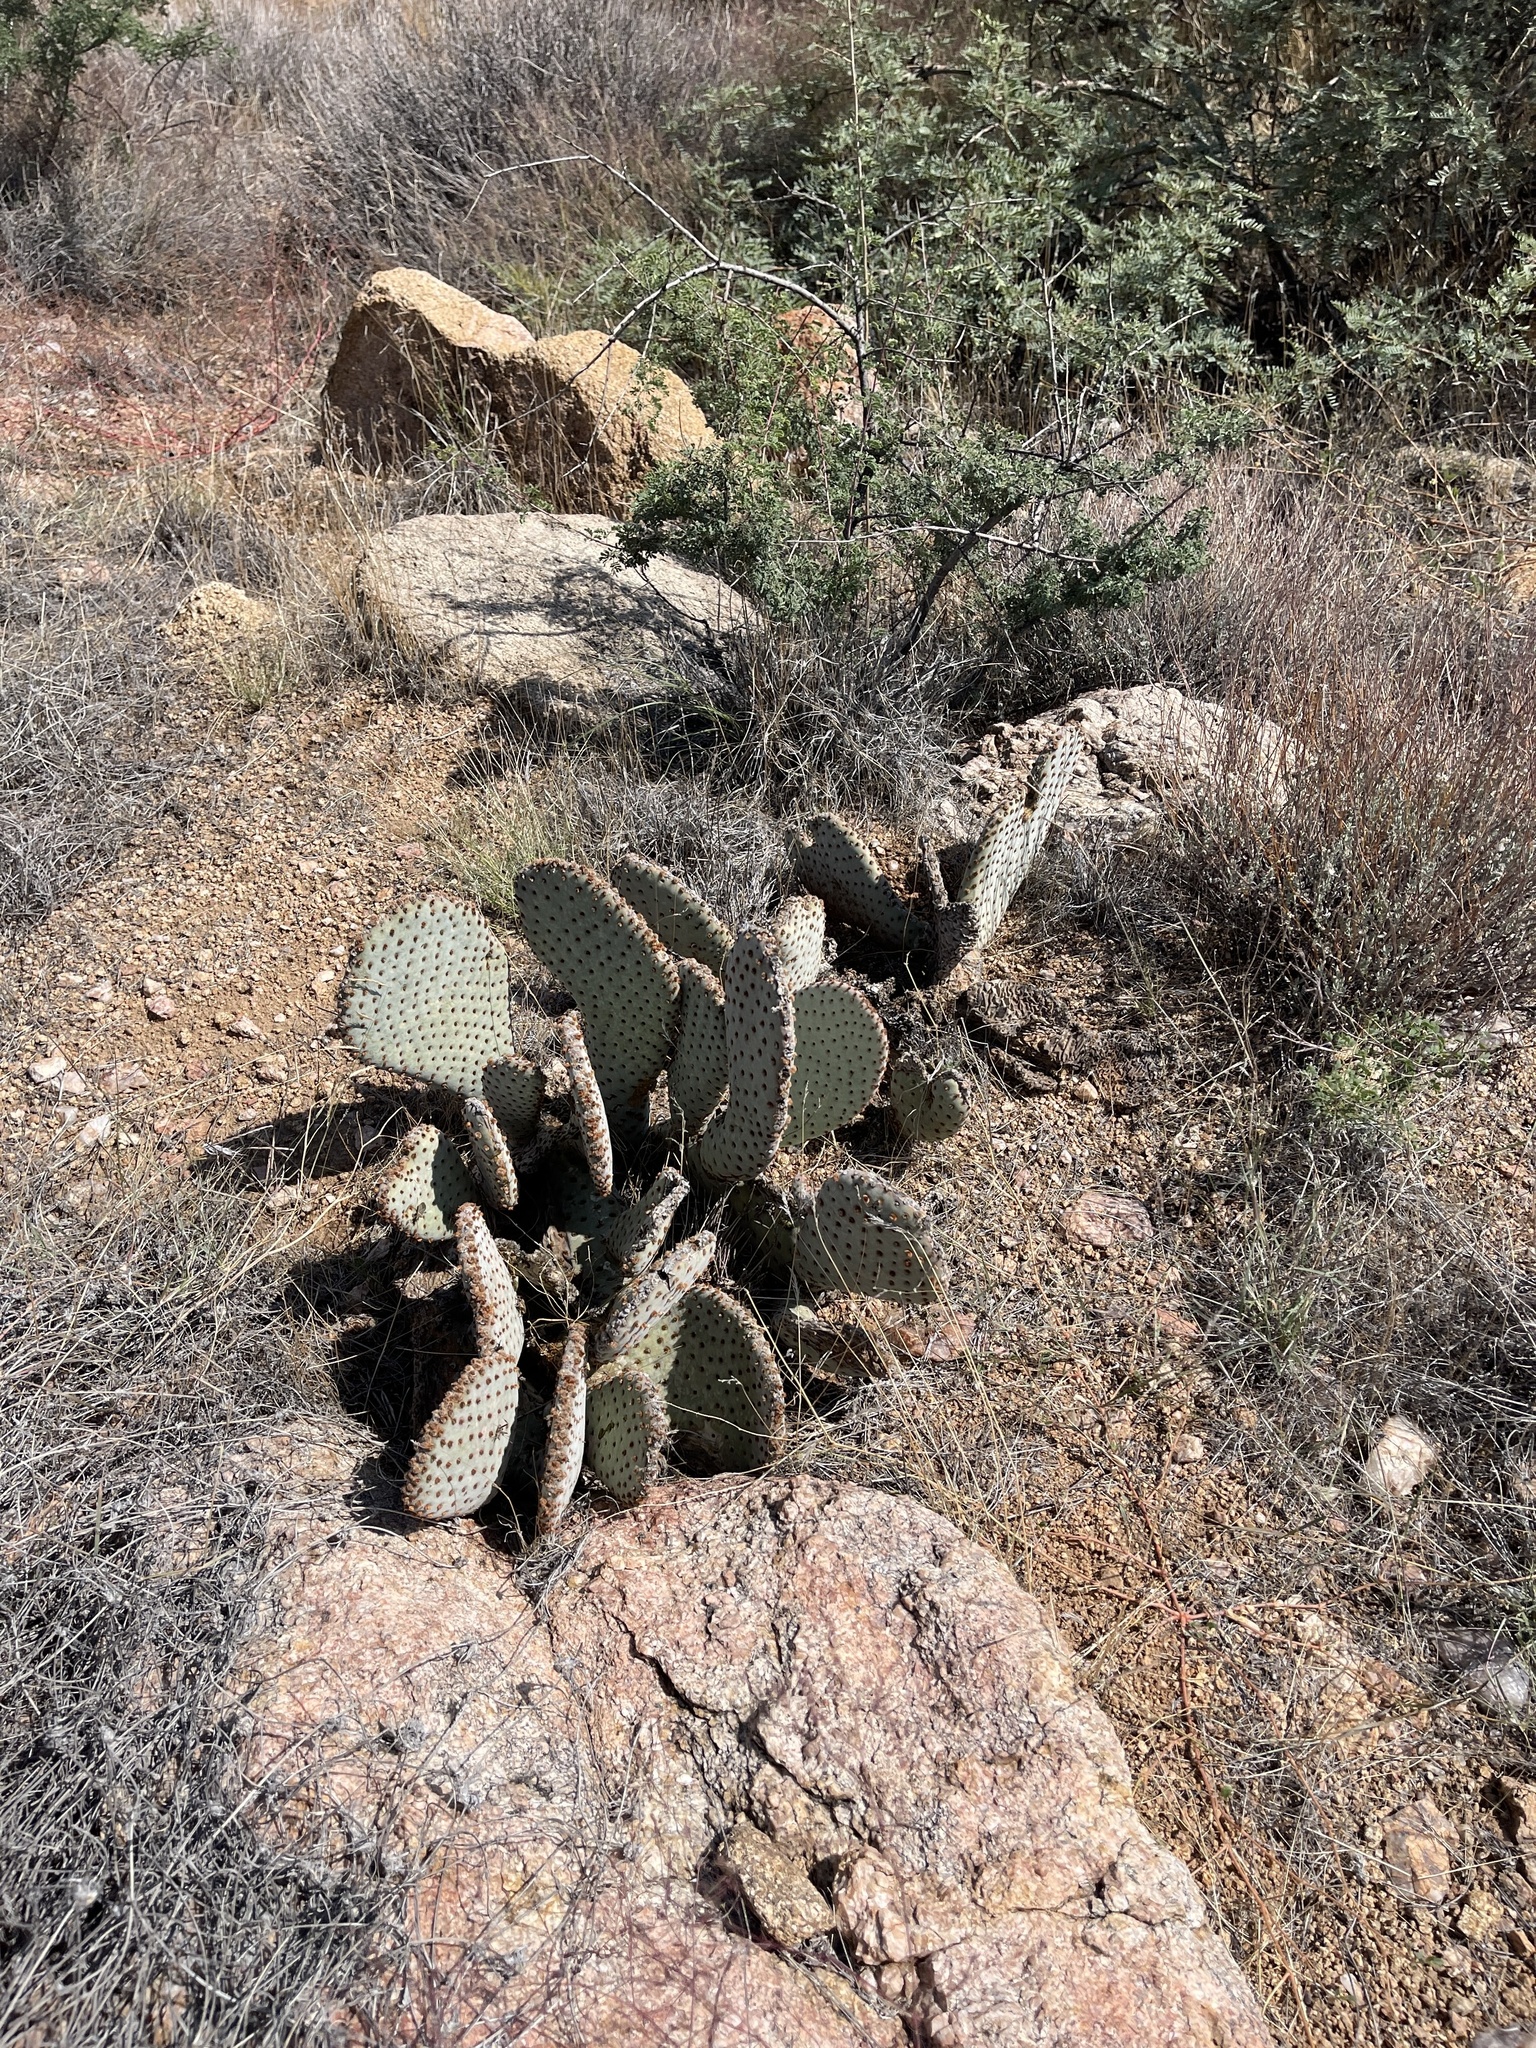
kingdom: Plantae
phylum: Tracheophyta
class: Magnoliopsida
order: Caryophyllales
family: Cactaceae
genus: Opuntia
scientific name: Opuntia basilaris
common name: Beavertail prickly-pear
